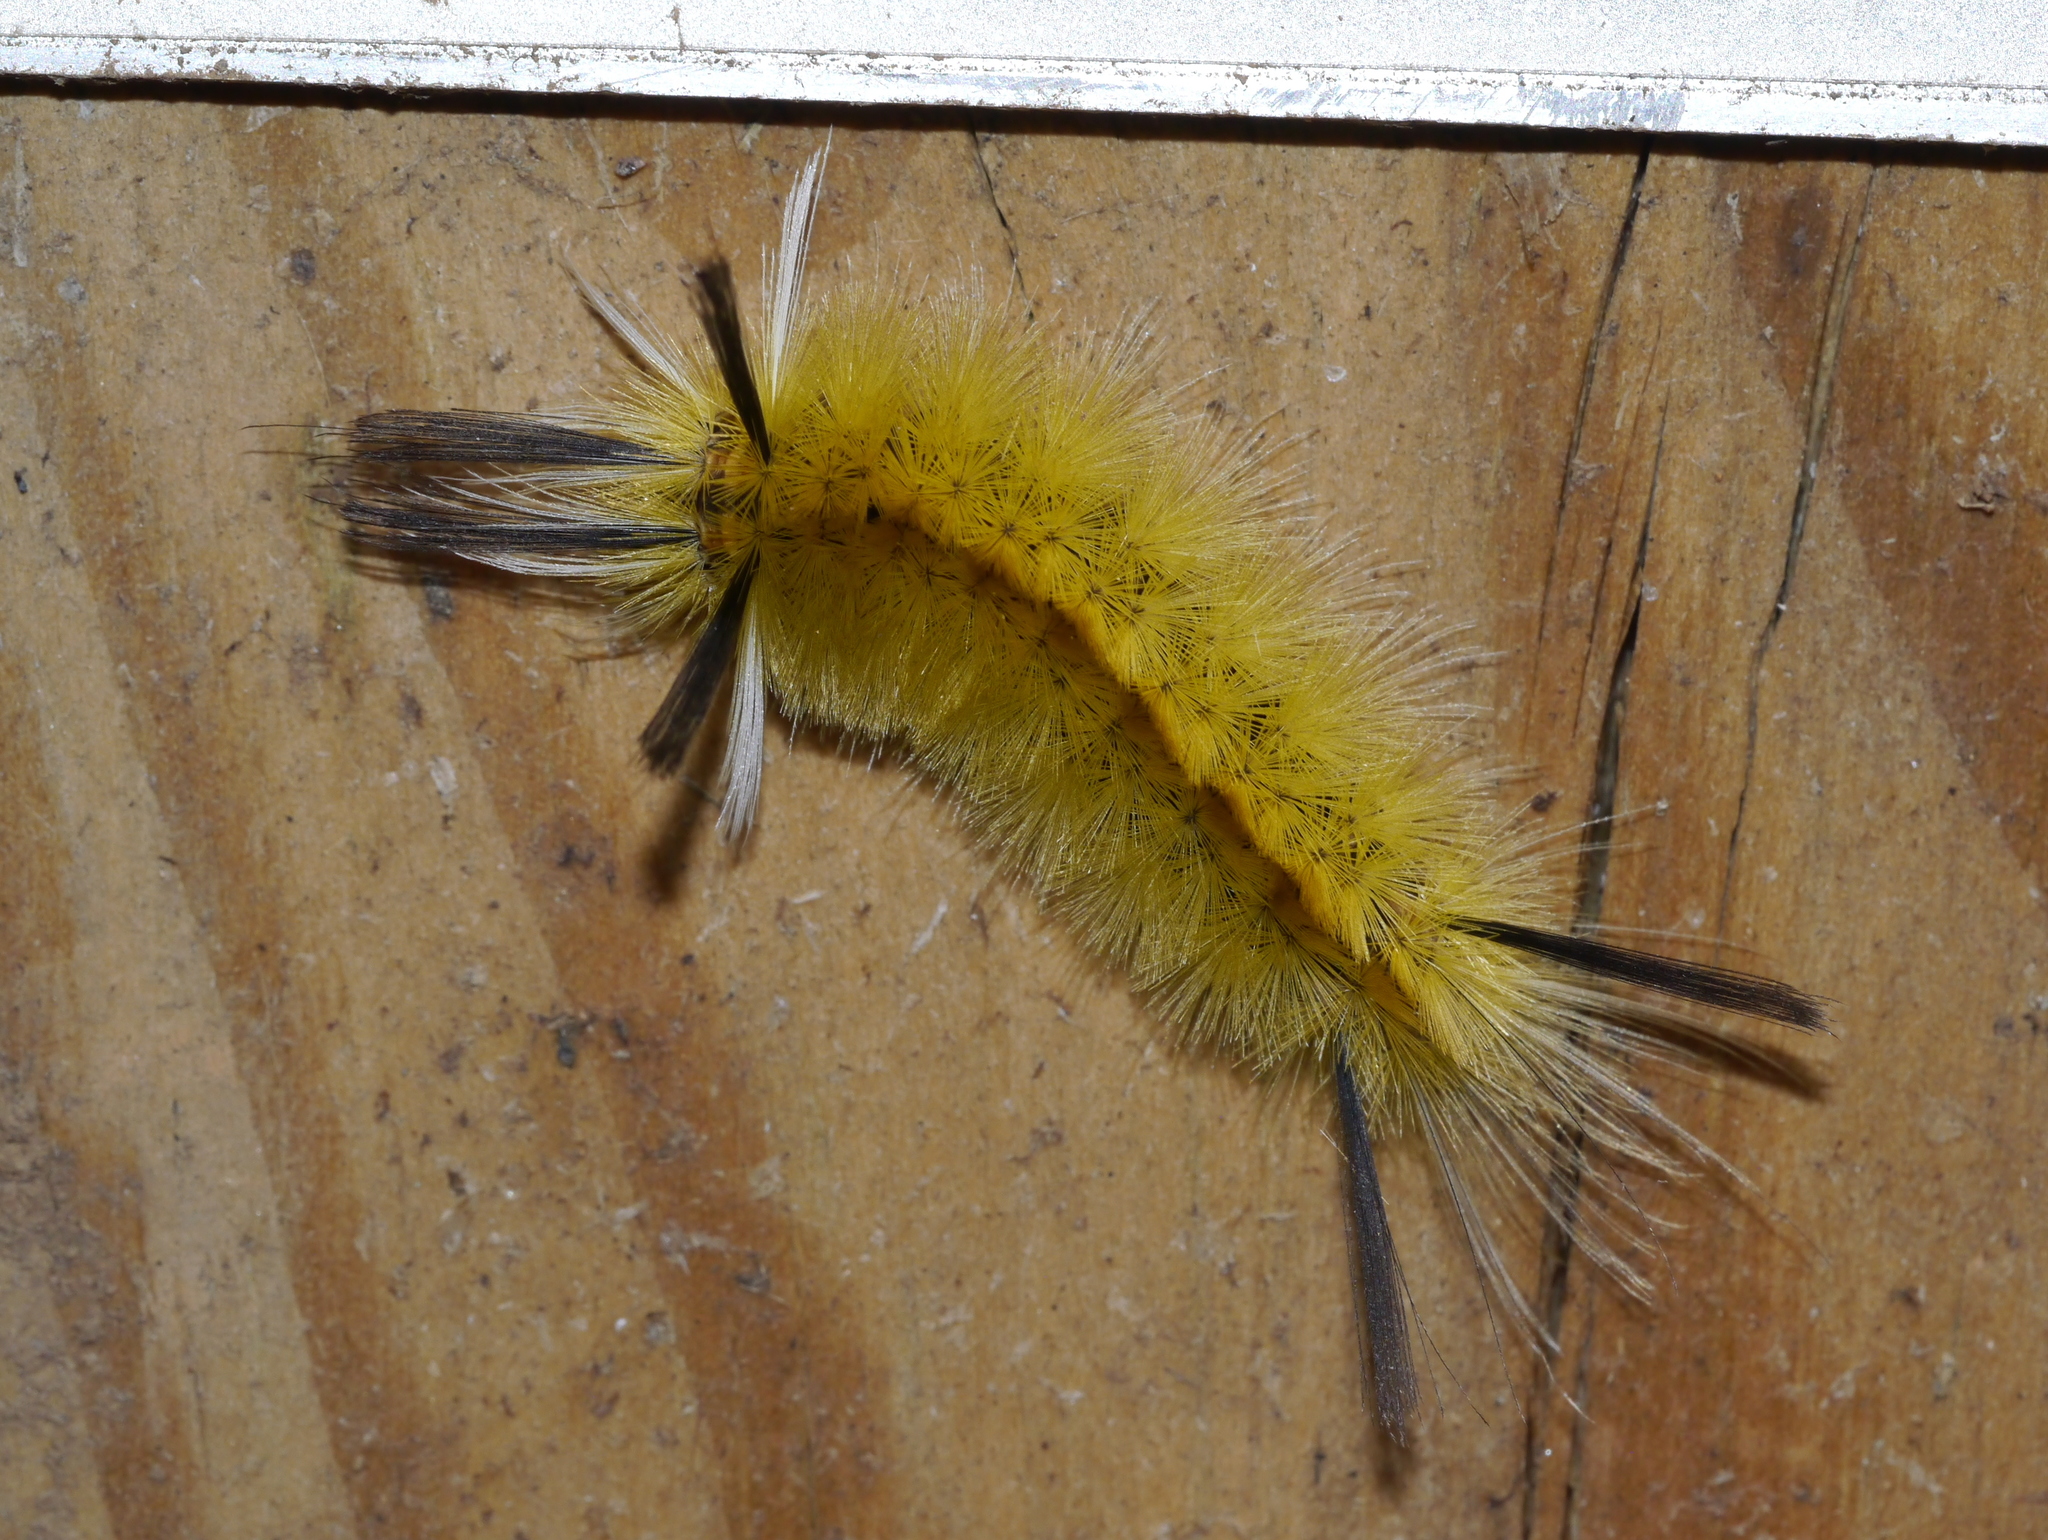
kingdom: Animalia
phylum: Arthropoda
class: Insecta
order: Lepidoptera
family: Erebidae
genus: Halysidota
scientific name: Halysidota tessellaris
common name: Banded tussock moth
